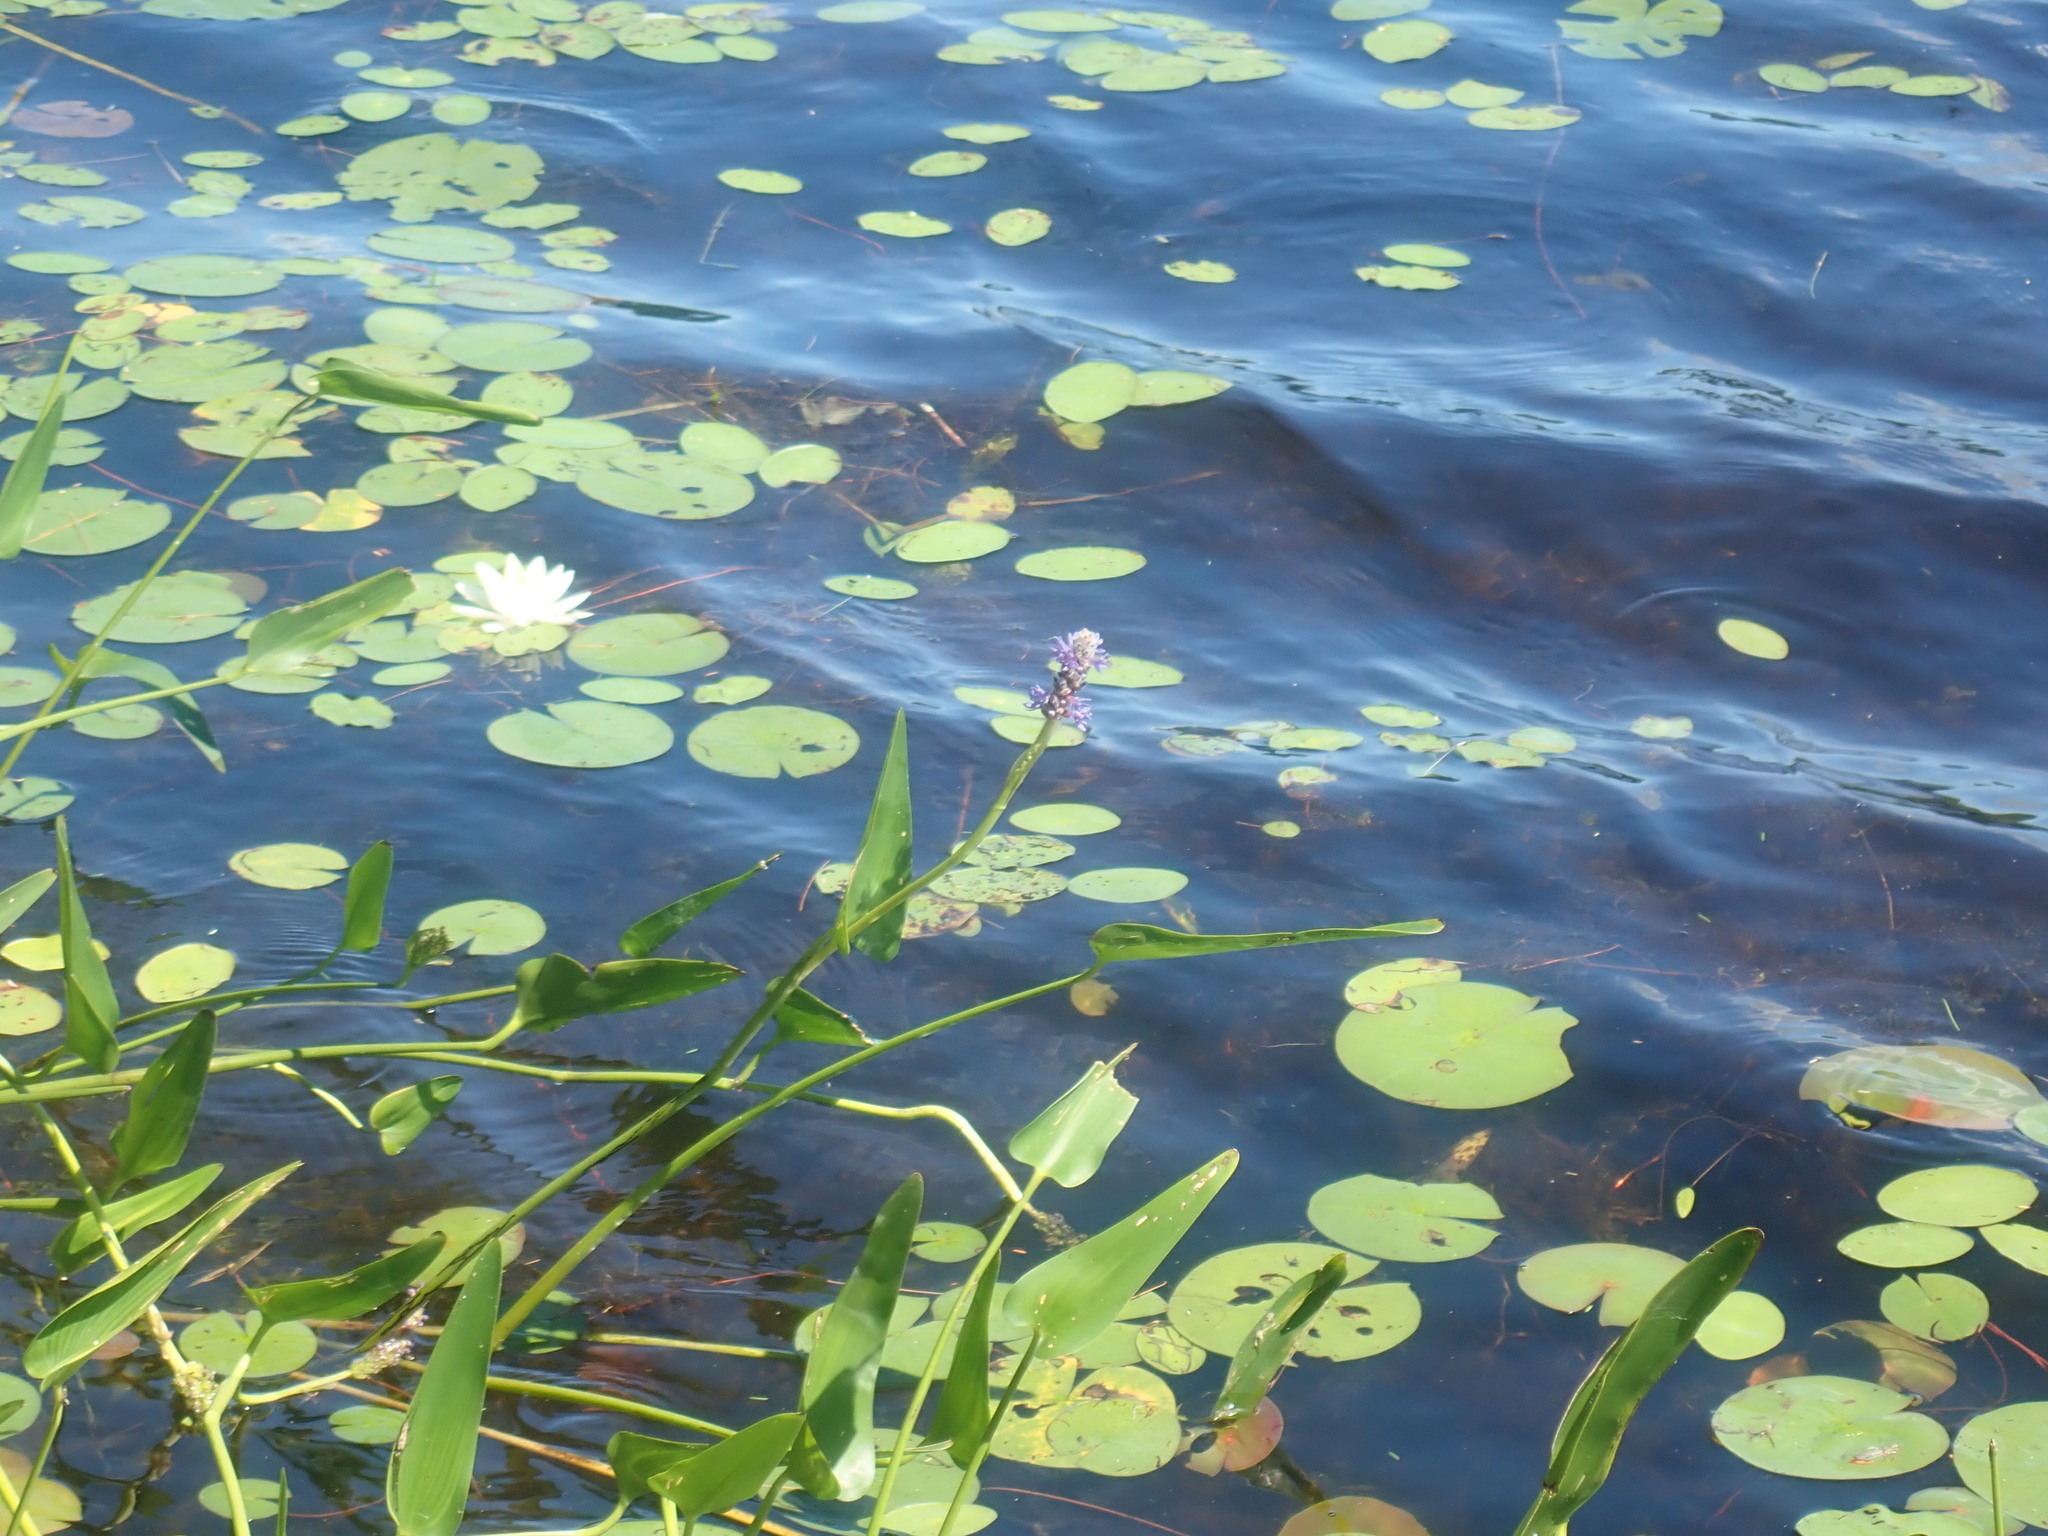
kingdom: Plantae
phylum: Tracheophyta
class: Liliopsida
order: Commelinales
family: Pontederiaceae
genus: Pontederia
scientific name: Pontederia cordata
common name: Pickerelweed
